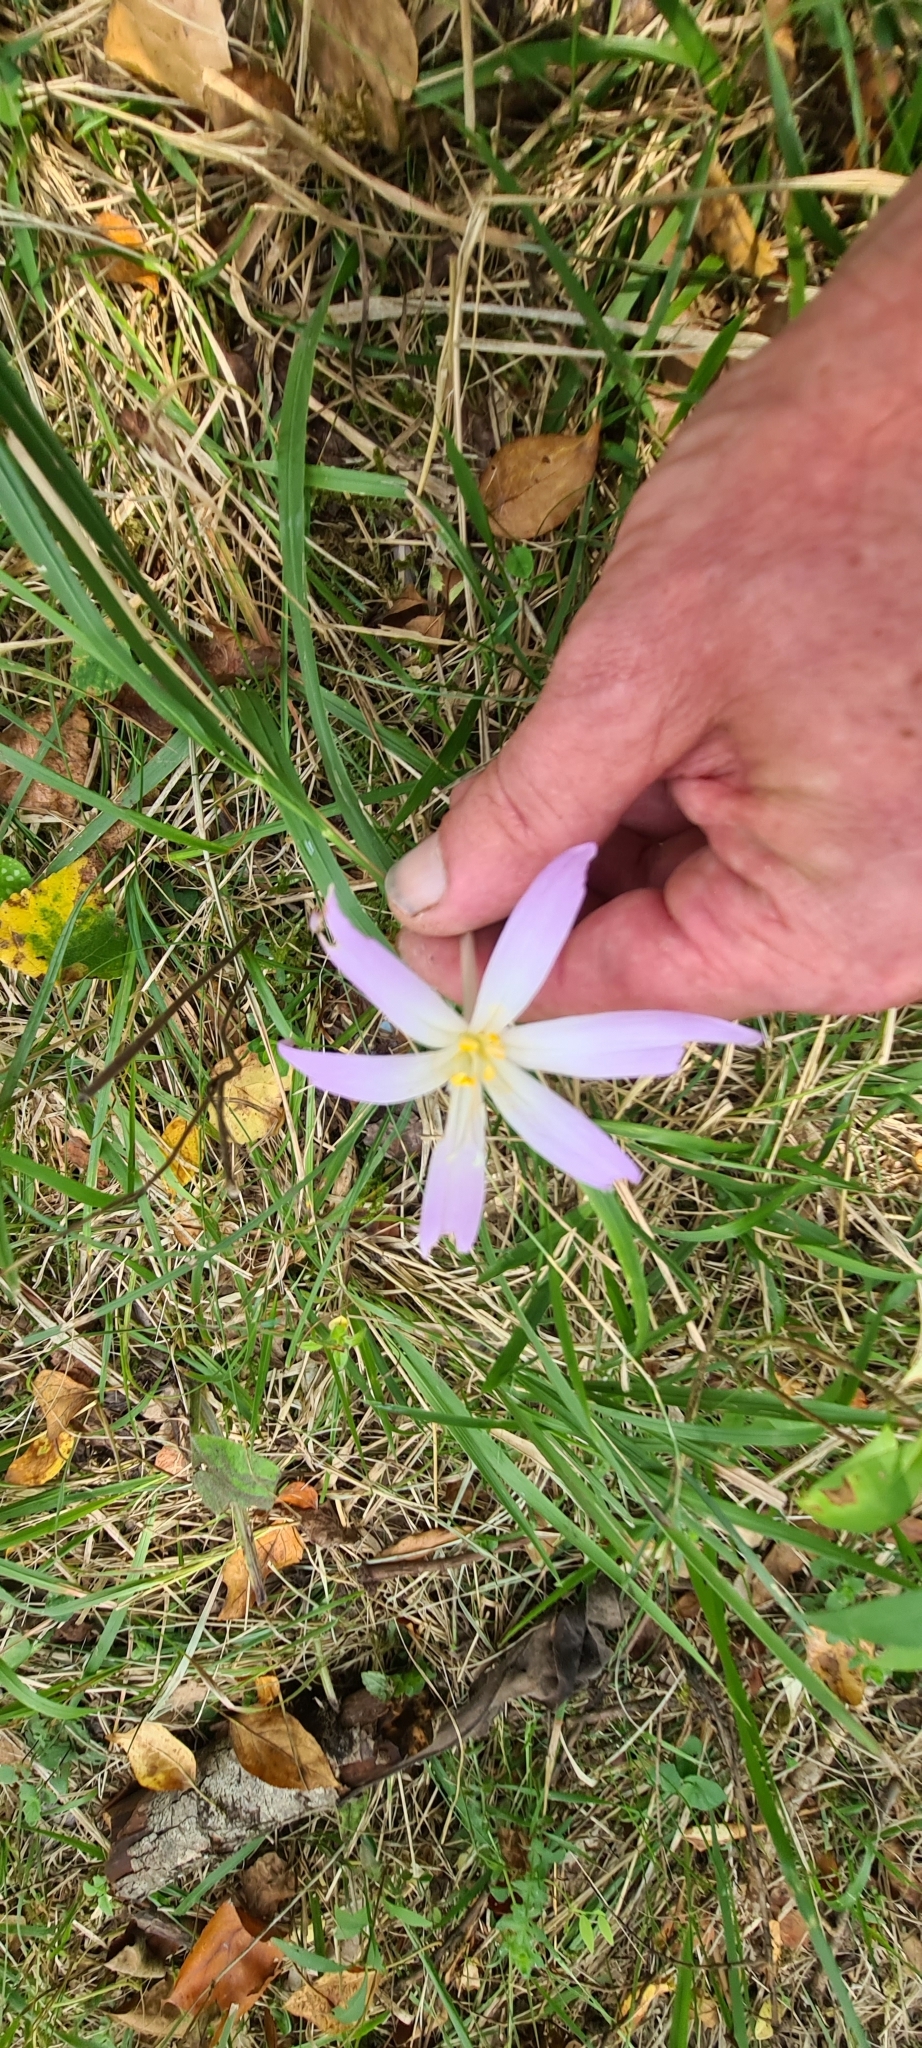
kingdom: Plantae
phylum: Tracheophyta
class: Liliopsida
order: Liliales
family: Colchicaceae
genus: Colchicum
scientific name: Colchicum alpinum
